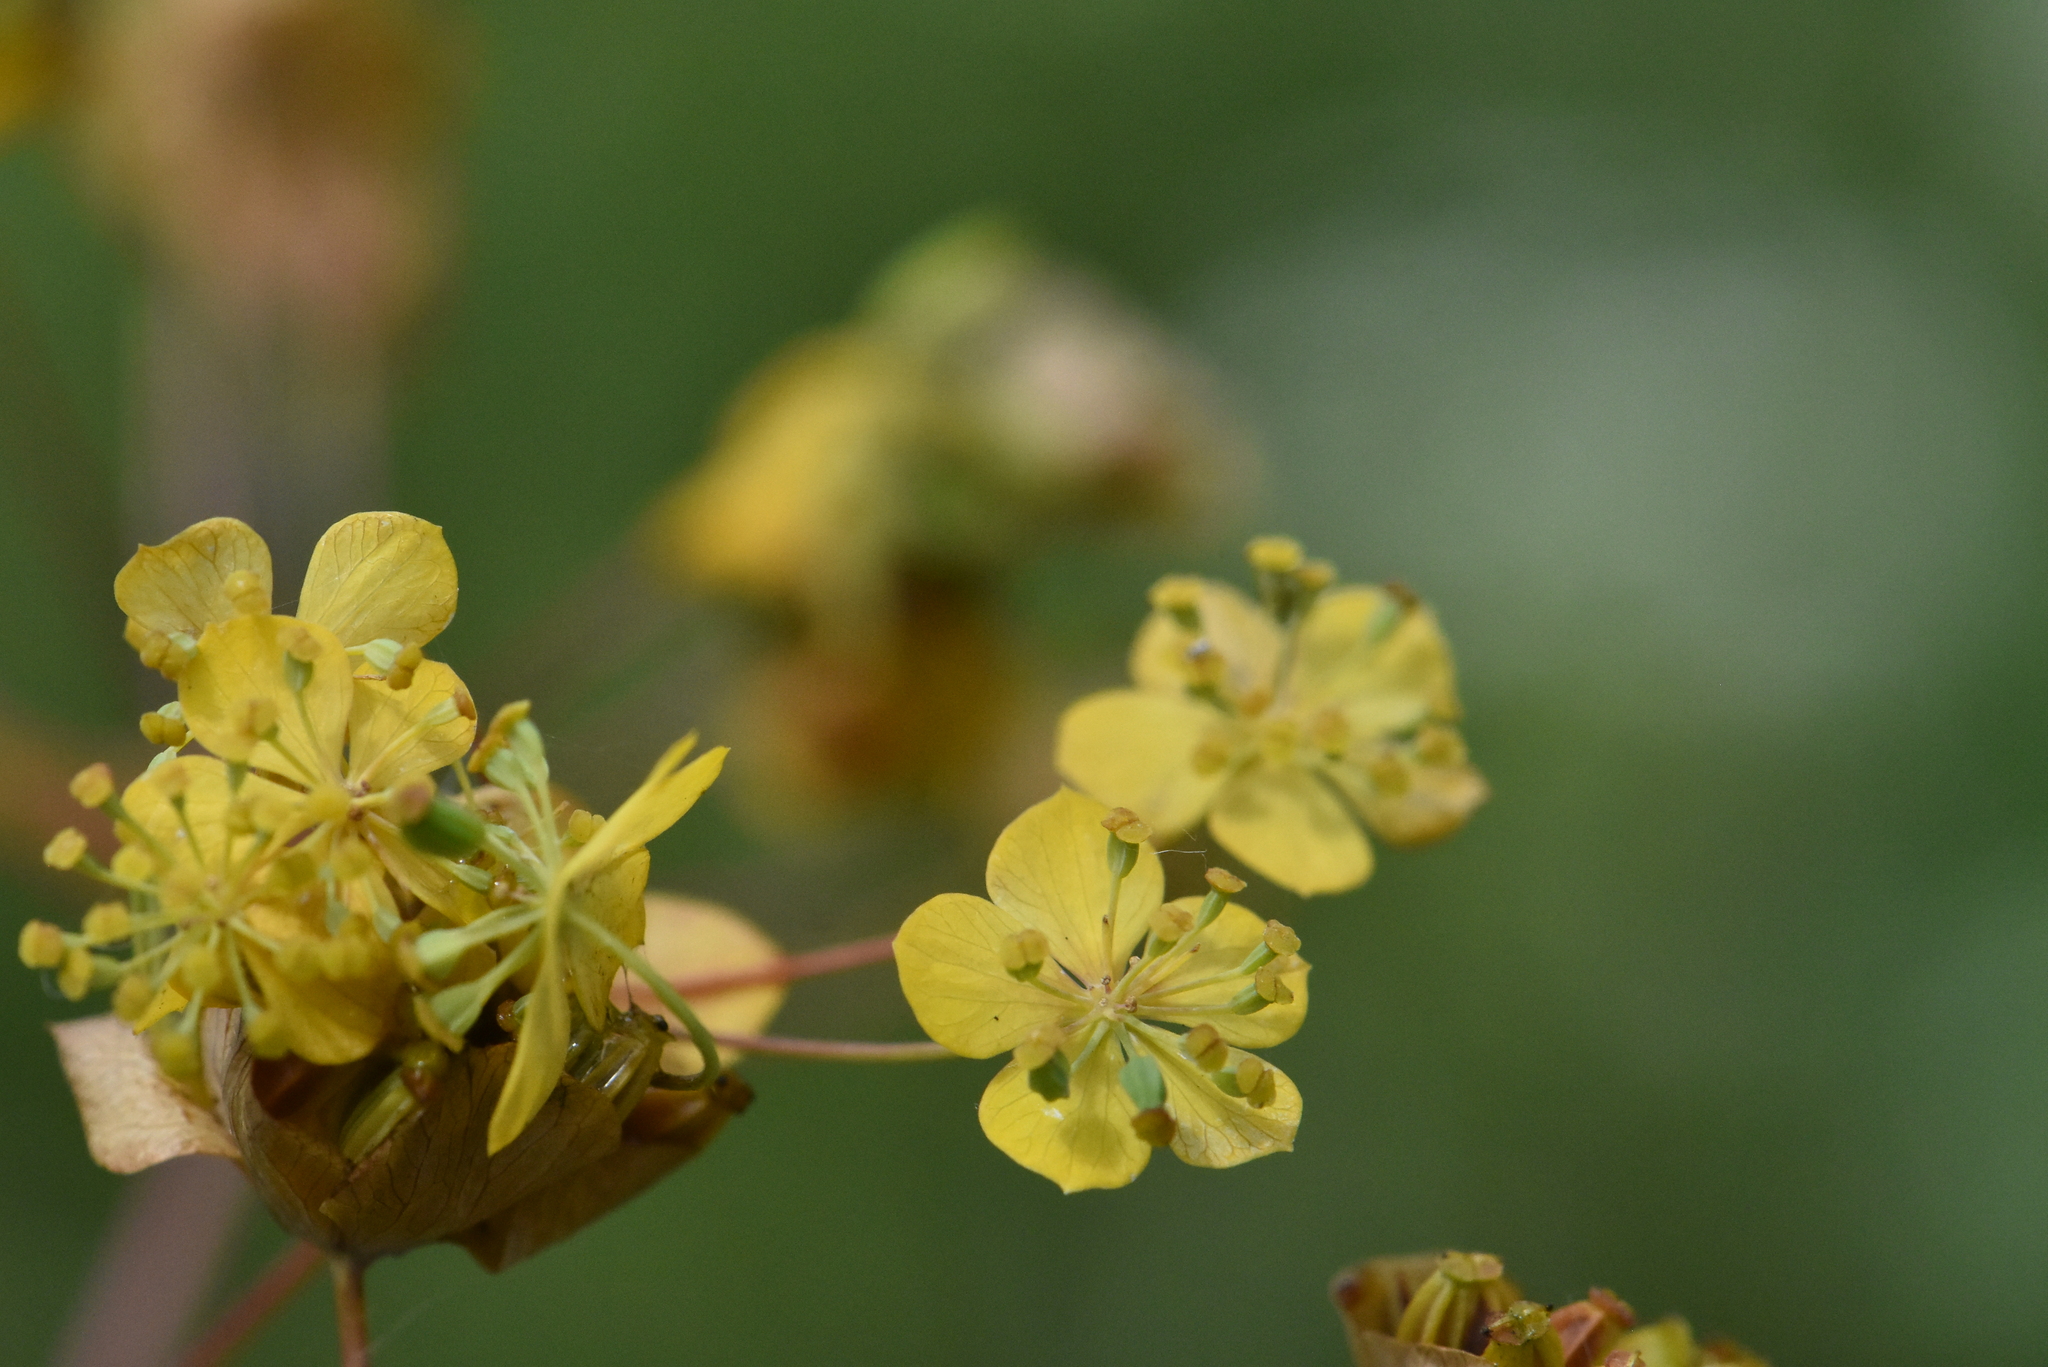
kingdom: Plantae
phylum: Tracheophyta
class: Magnoliopsida
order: Apiales
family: Apiaceae
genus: Bupleurum
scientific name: Bupleurum aureum
